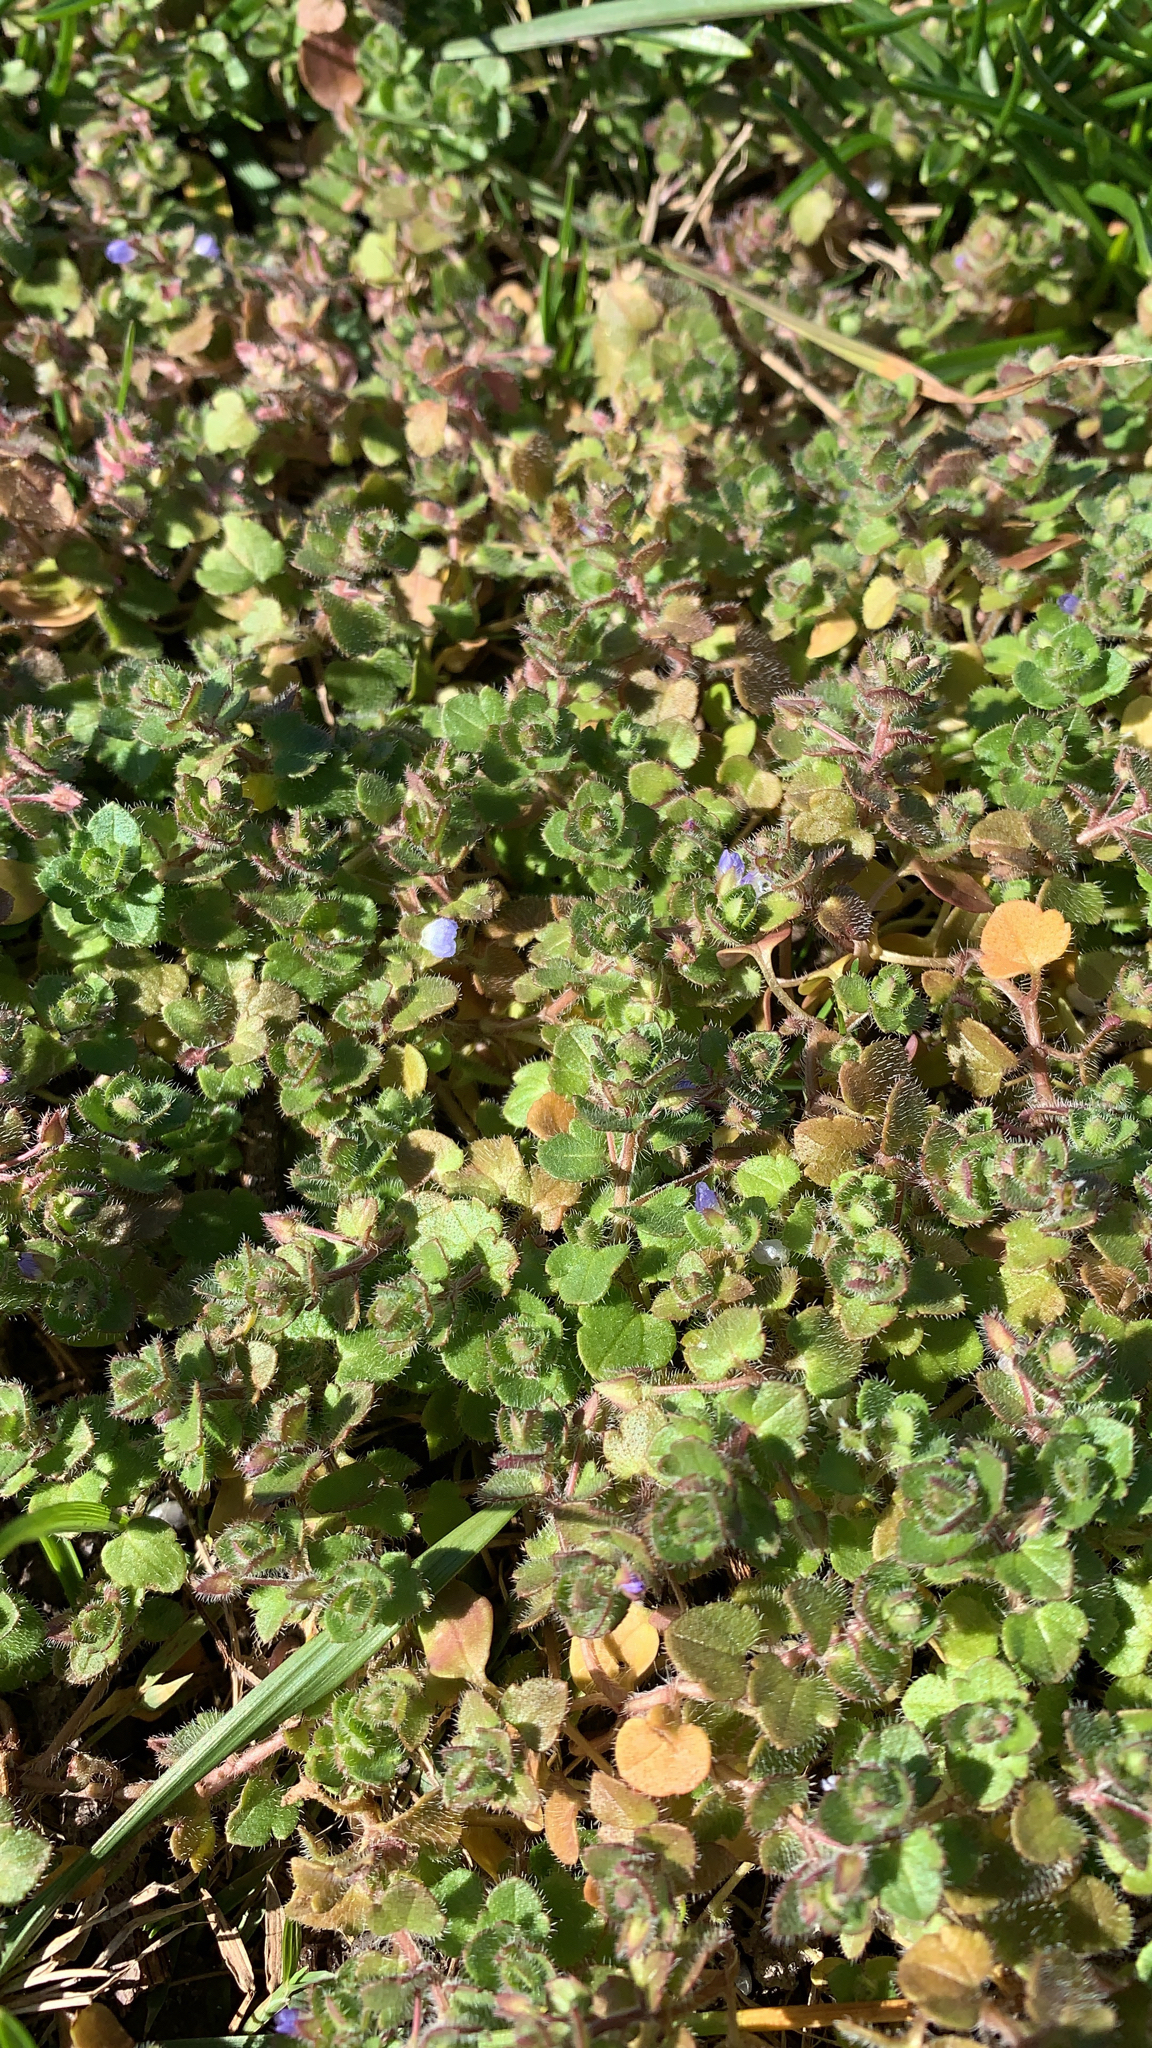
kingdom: Plantae
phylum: Tracheophyta
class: Magnoliopsida
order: Lamiales
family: Plantaginaceae
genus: Veronica
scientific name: Veronica hederifolia
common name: Ivy-leaved speedwell
